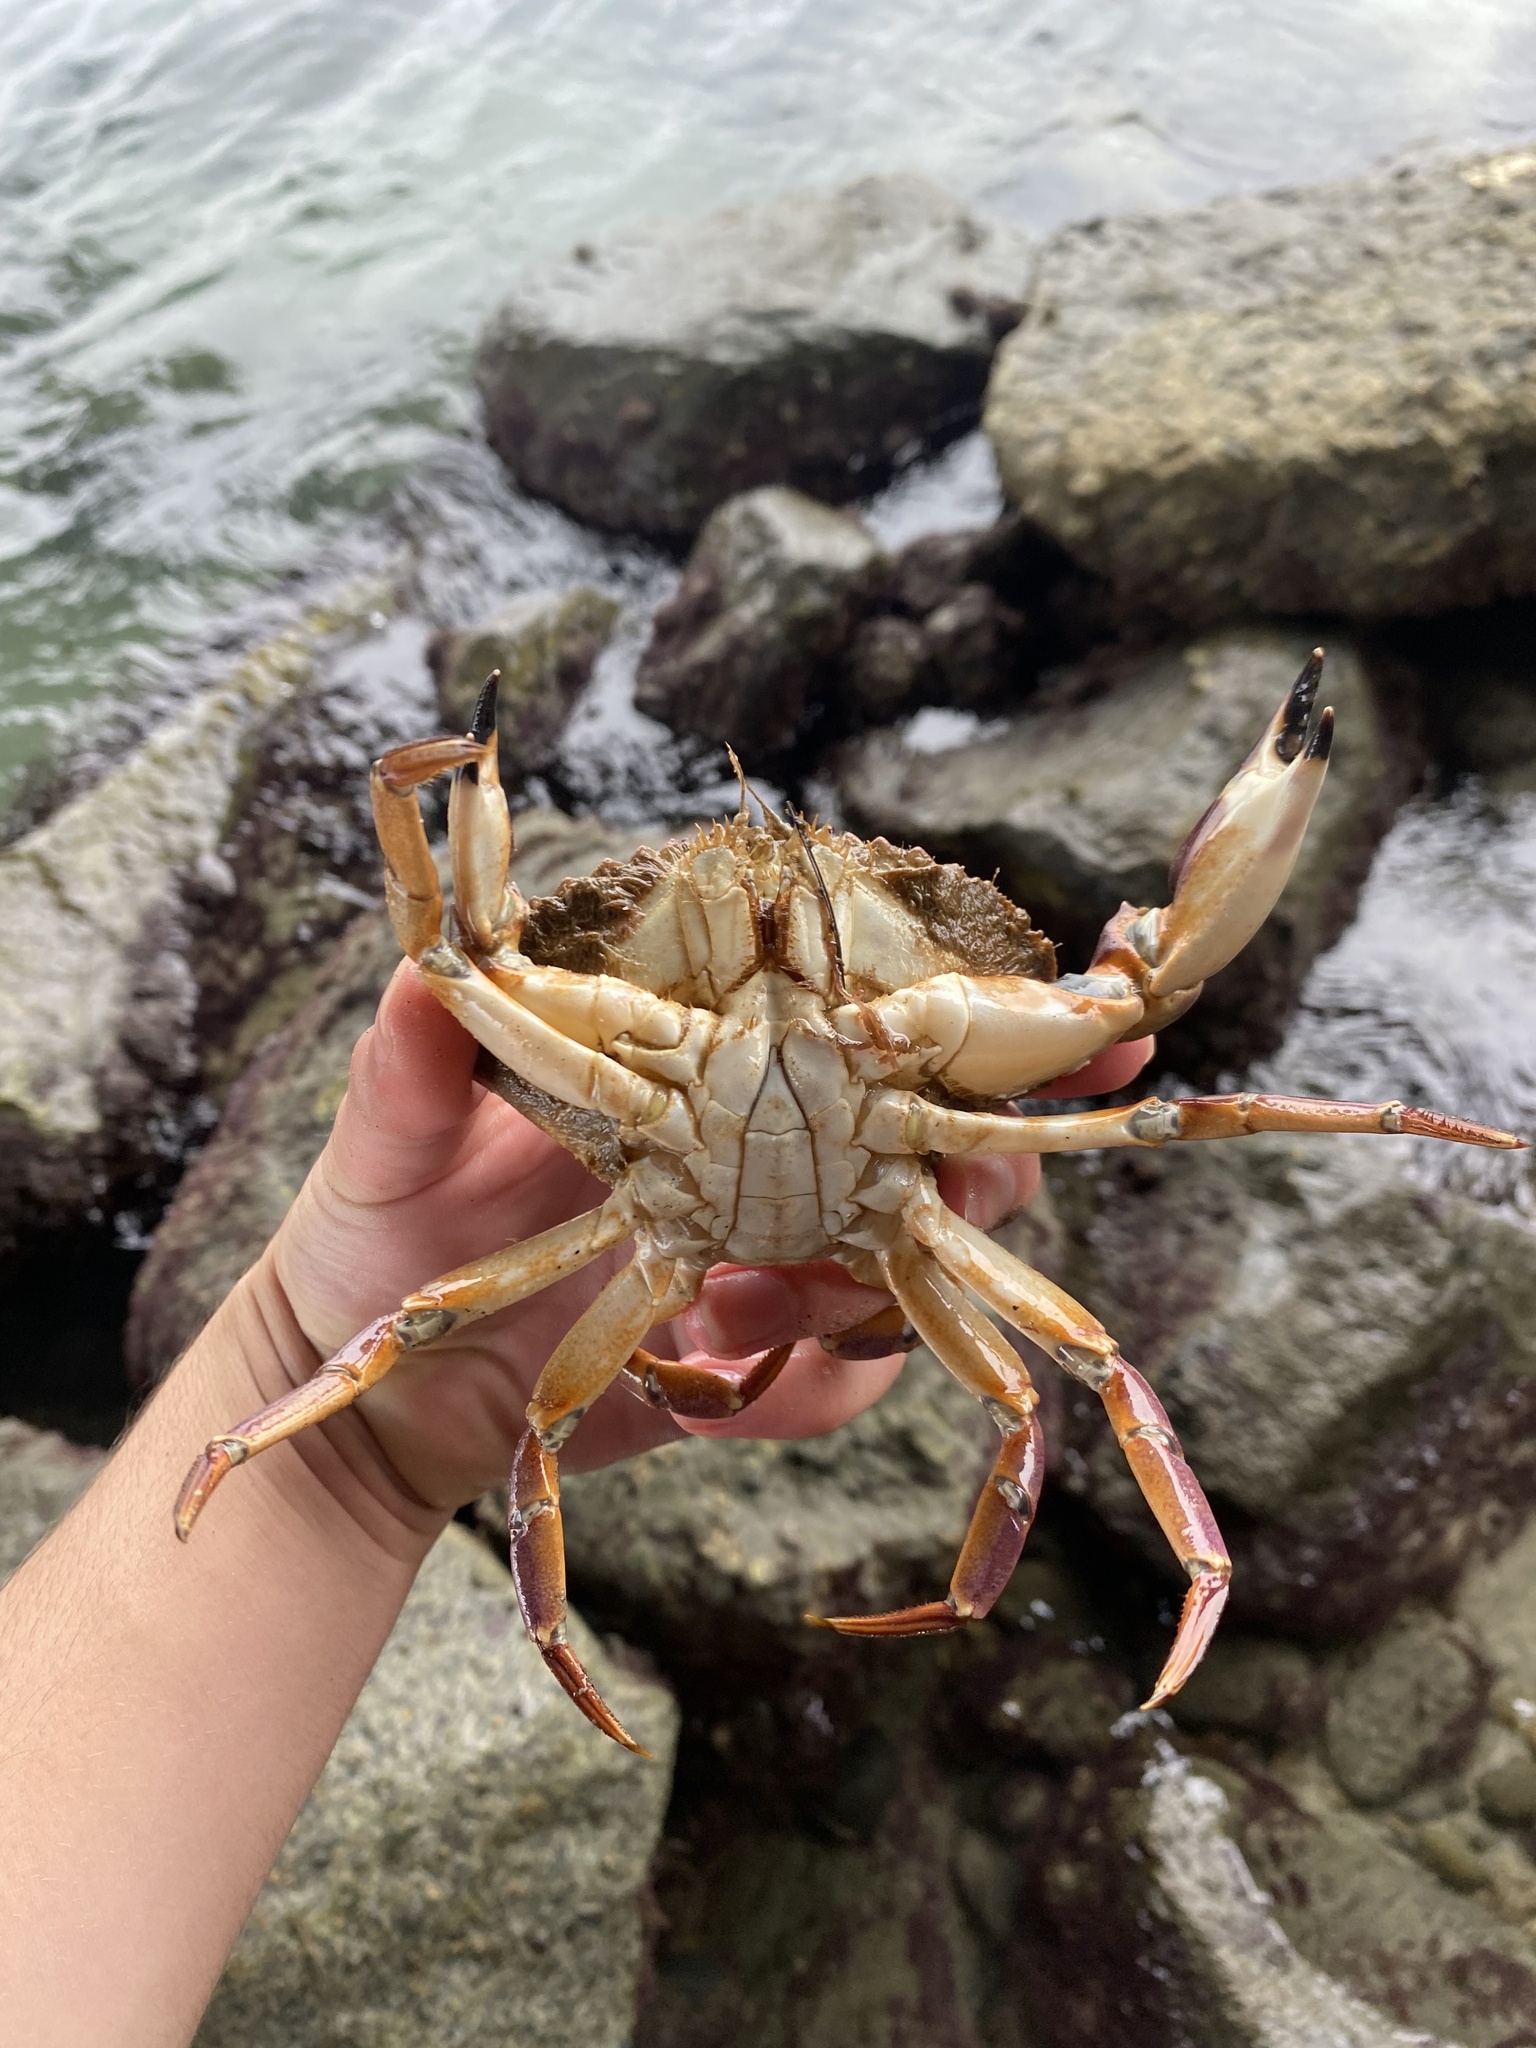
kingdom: Animalia
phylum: Arthropoda
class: Malacostraca
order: Decapoda
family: Cancridae
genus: Metacarcinus
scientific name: Metacarcinus anthonyi
